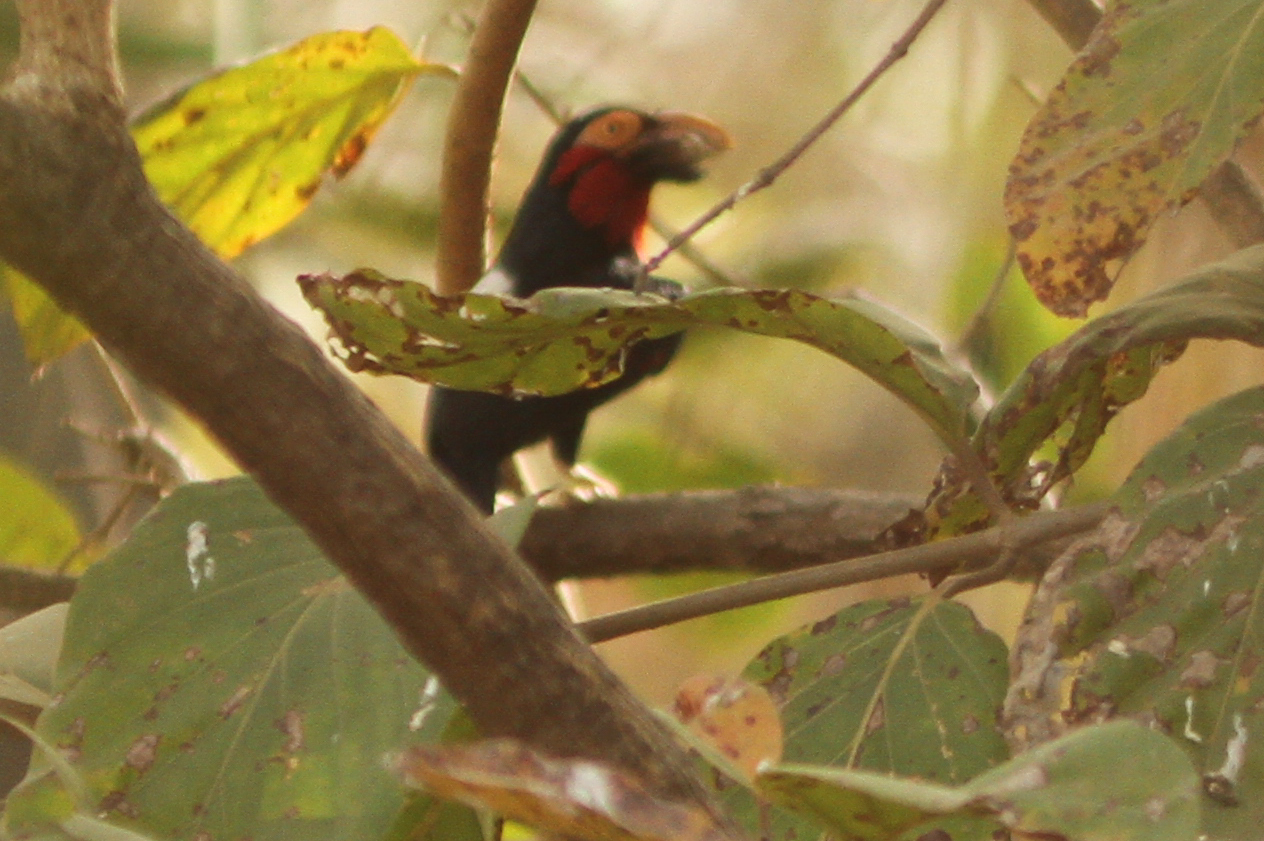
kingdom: Animalia
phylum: Chordata
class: Aves
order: Piciformes
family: Lybiidae
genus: Lybius
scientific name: Lybius dubius
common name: Bearded barbet
